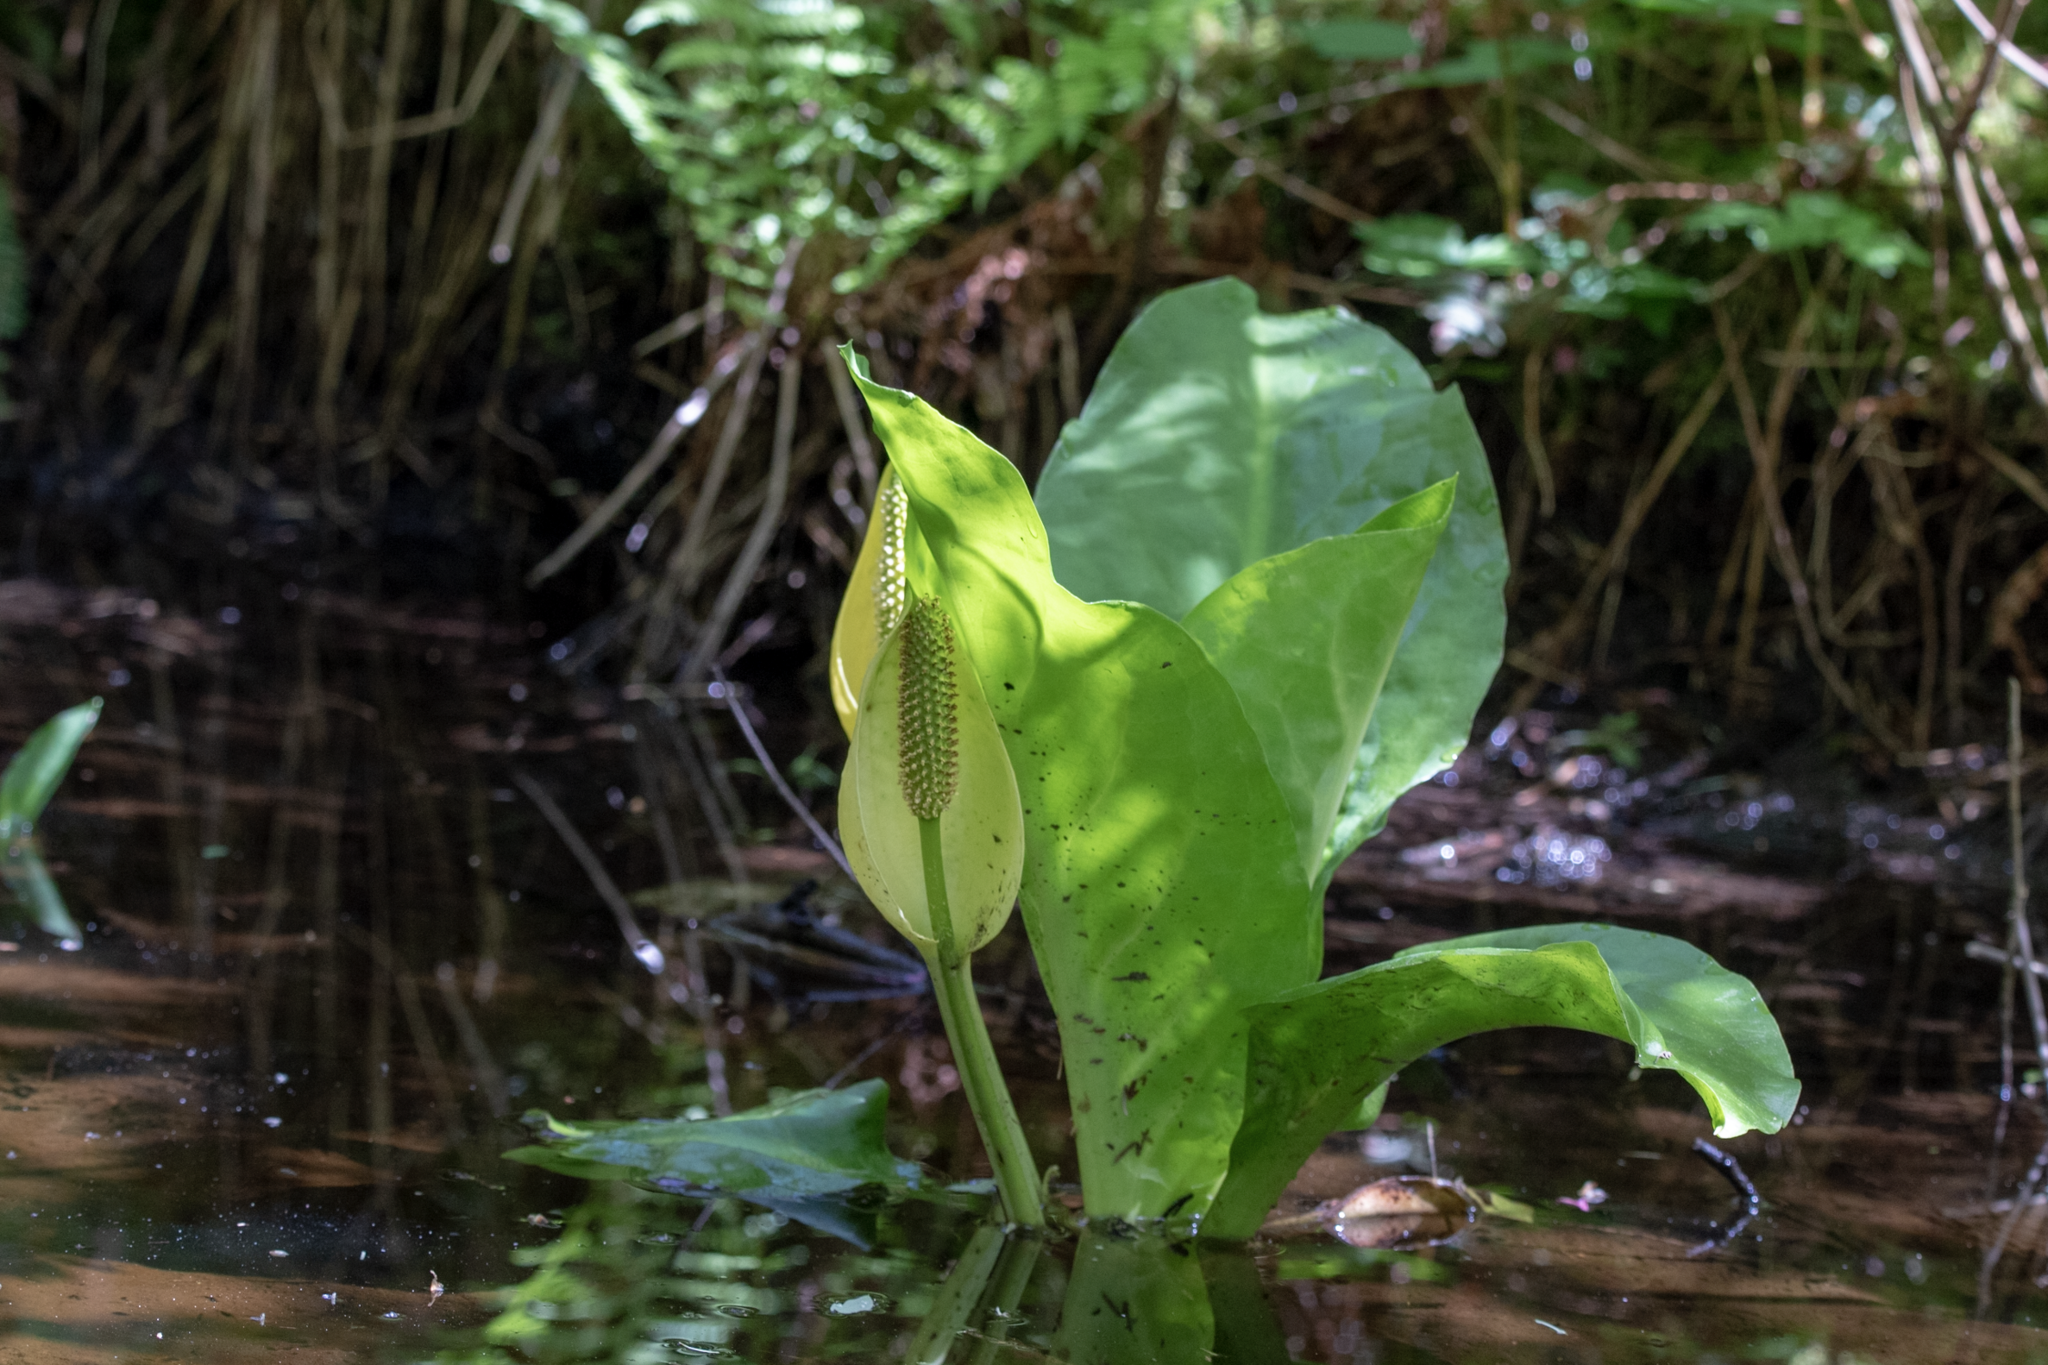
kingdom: Plantae
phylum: Tracheophyta
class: Liliopsida
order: Alismatales
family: Araceae
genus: Lysichiton
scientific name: Lysichiton americanus
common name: American skunk cabbage
